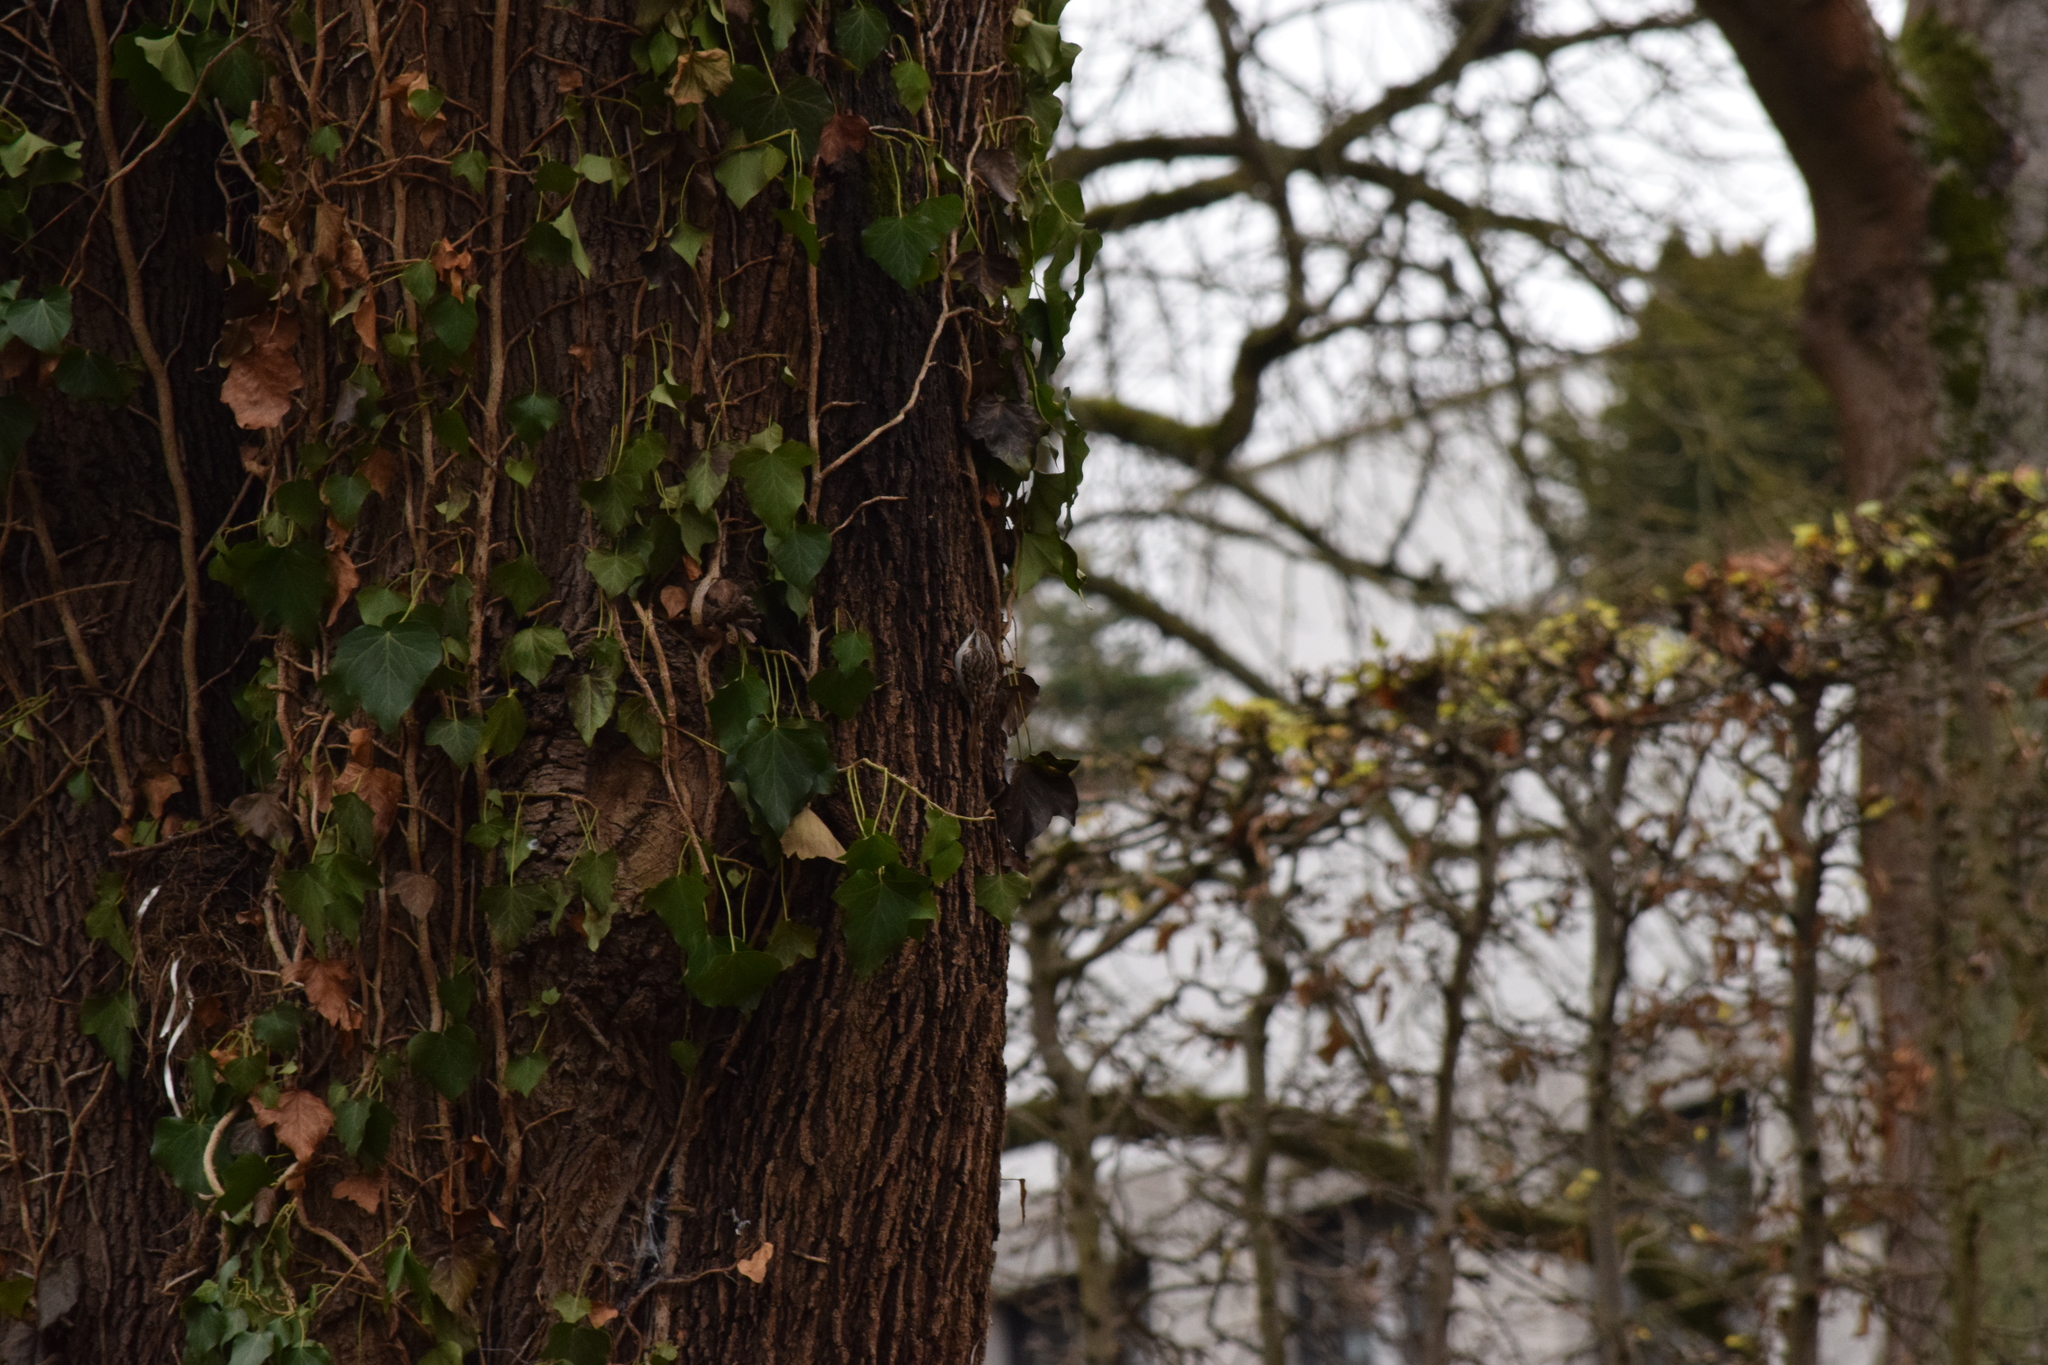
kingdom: Animalia
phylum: Chordata
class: Aves
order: Passeriformes
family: Certhiidae
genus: Certhia
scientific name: Certhia brachydactyla
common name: Short-toed treecreeper
